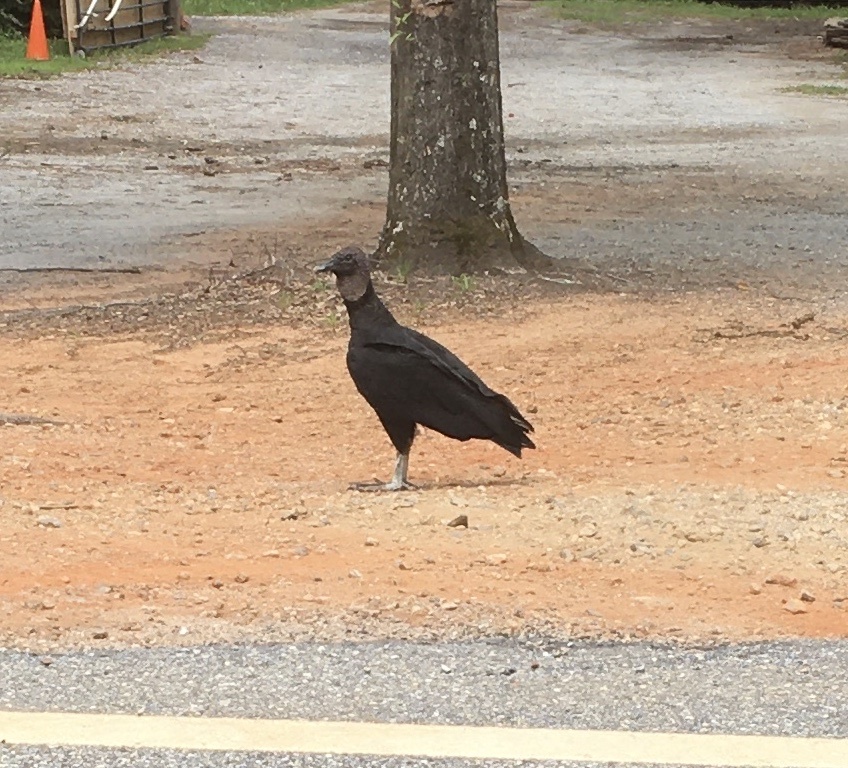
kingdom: Animalia
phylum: Chordata
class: Aves
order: Accipitriformes
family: Cathartidae
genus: Coragyps
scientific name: Coragyps atratus
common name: Black vulture
